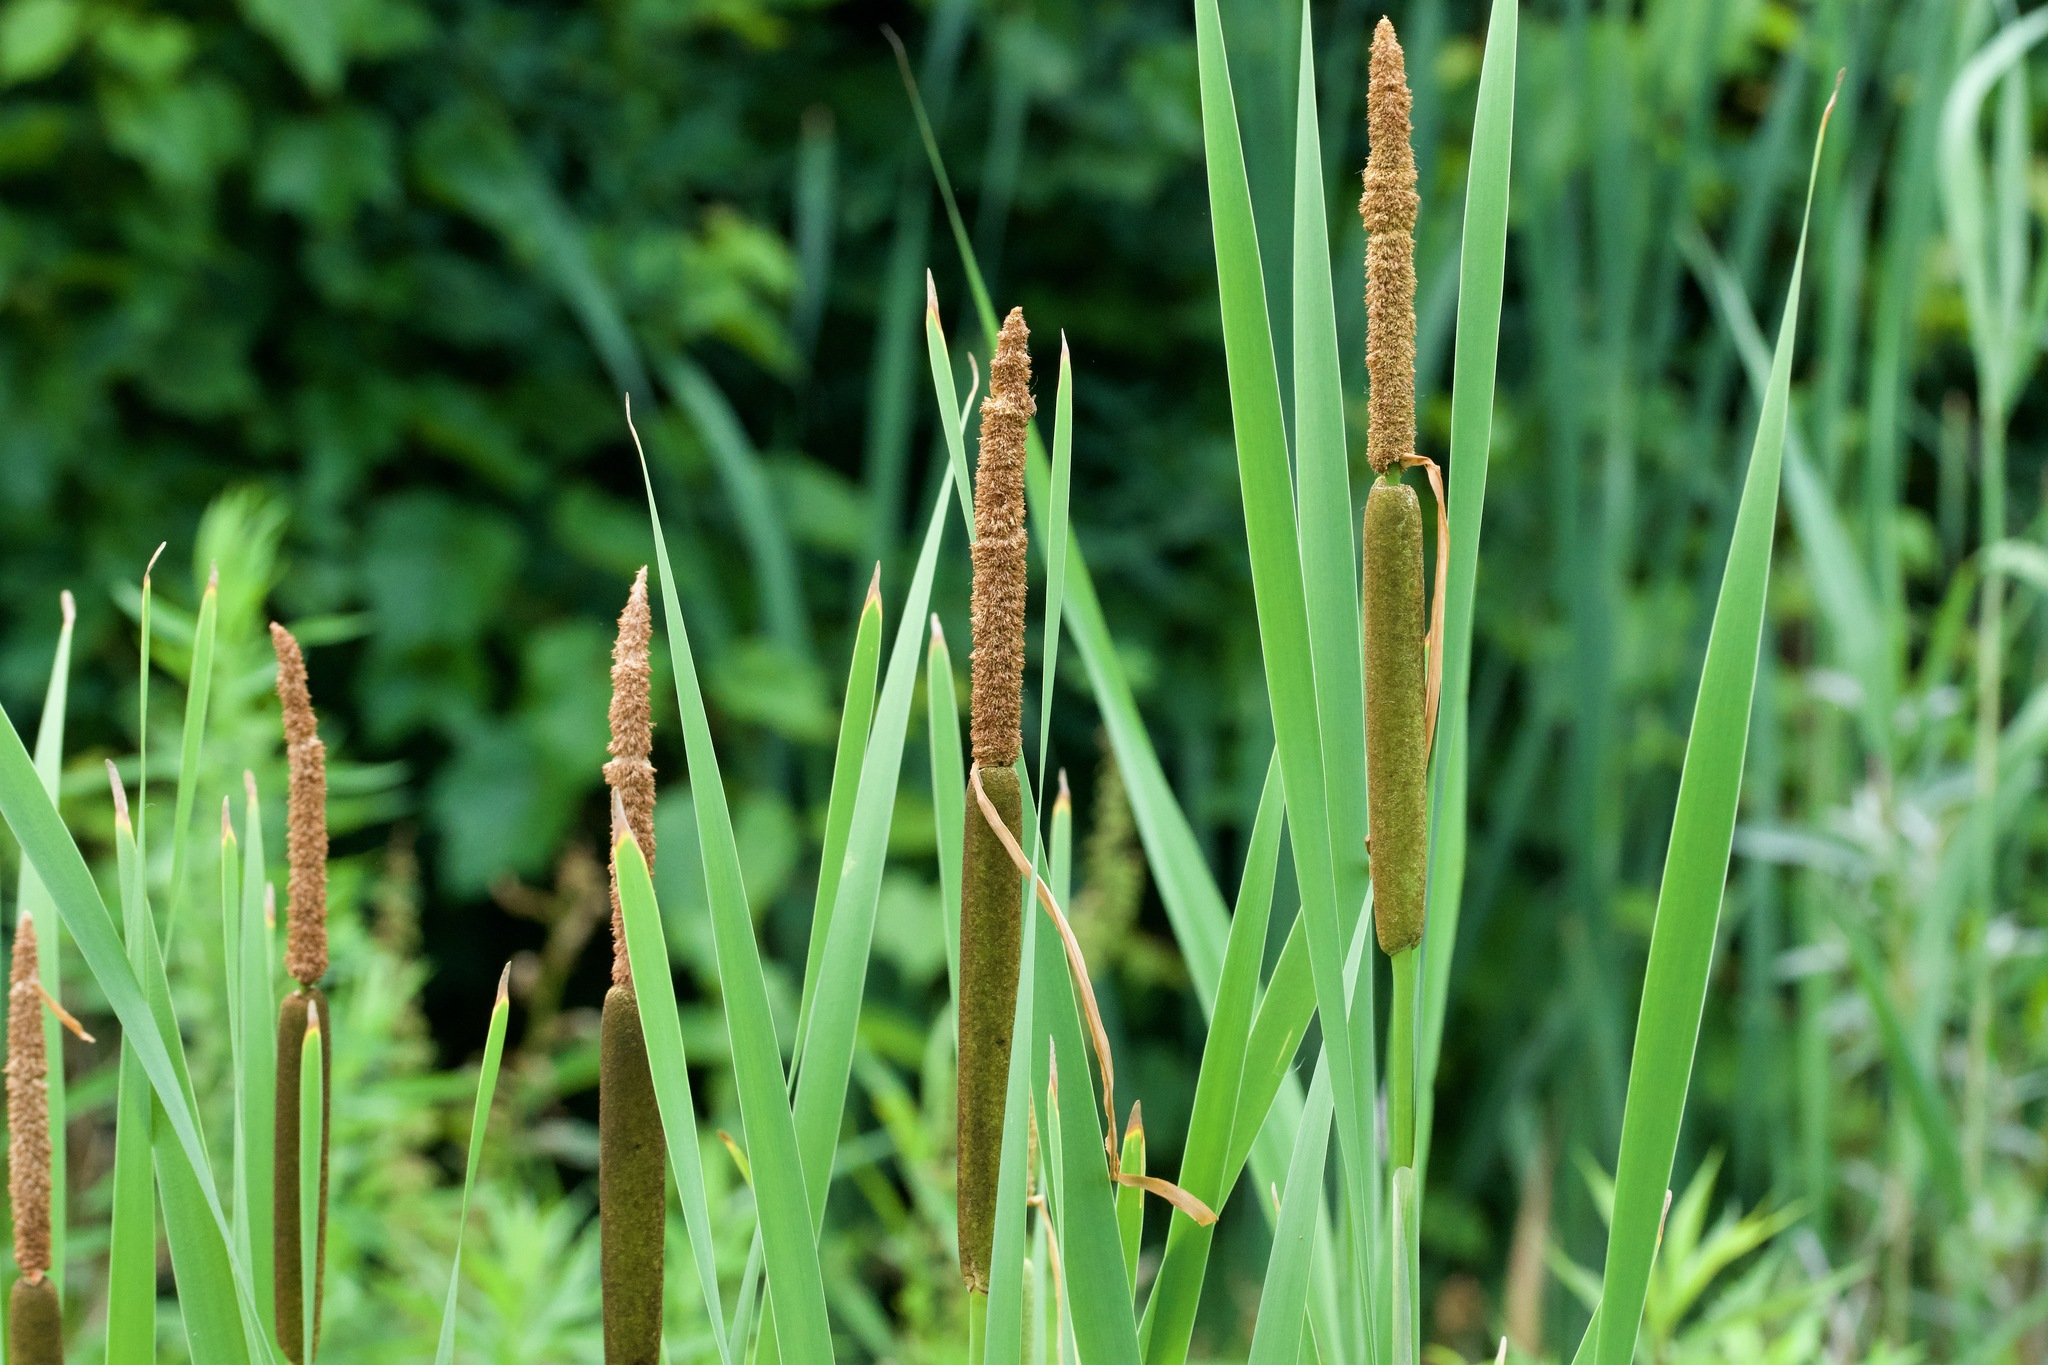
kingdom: Plantae
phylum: Tracheophyta
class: Liliopsida
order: Poales
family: Typhaceae
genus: Typha
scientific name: Typha glauca
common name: Blue cattail
